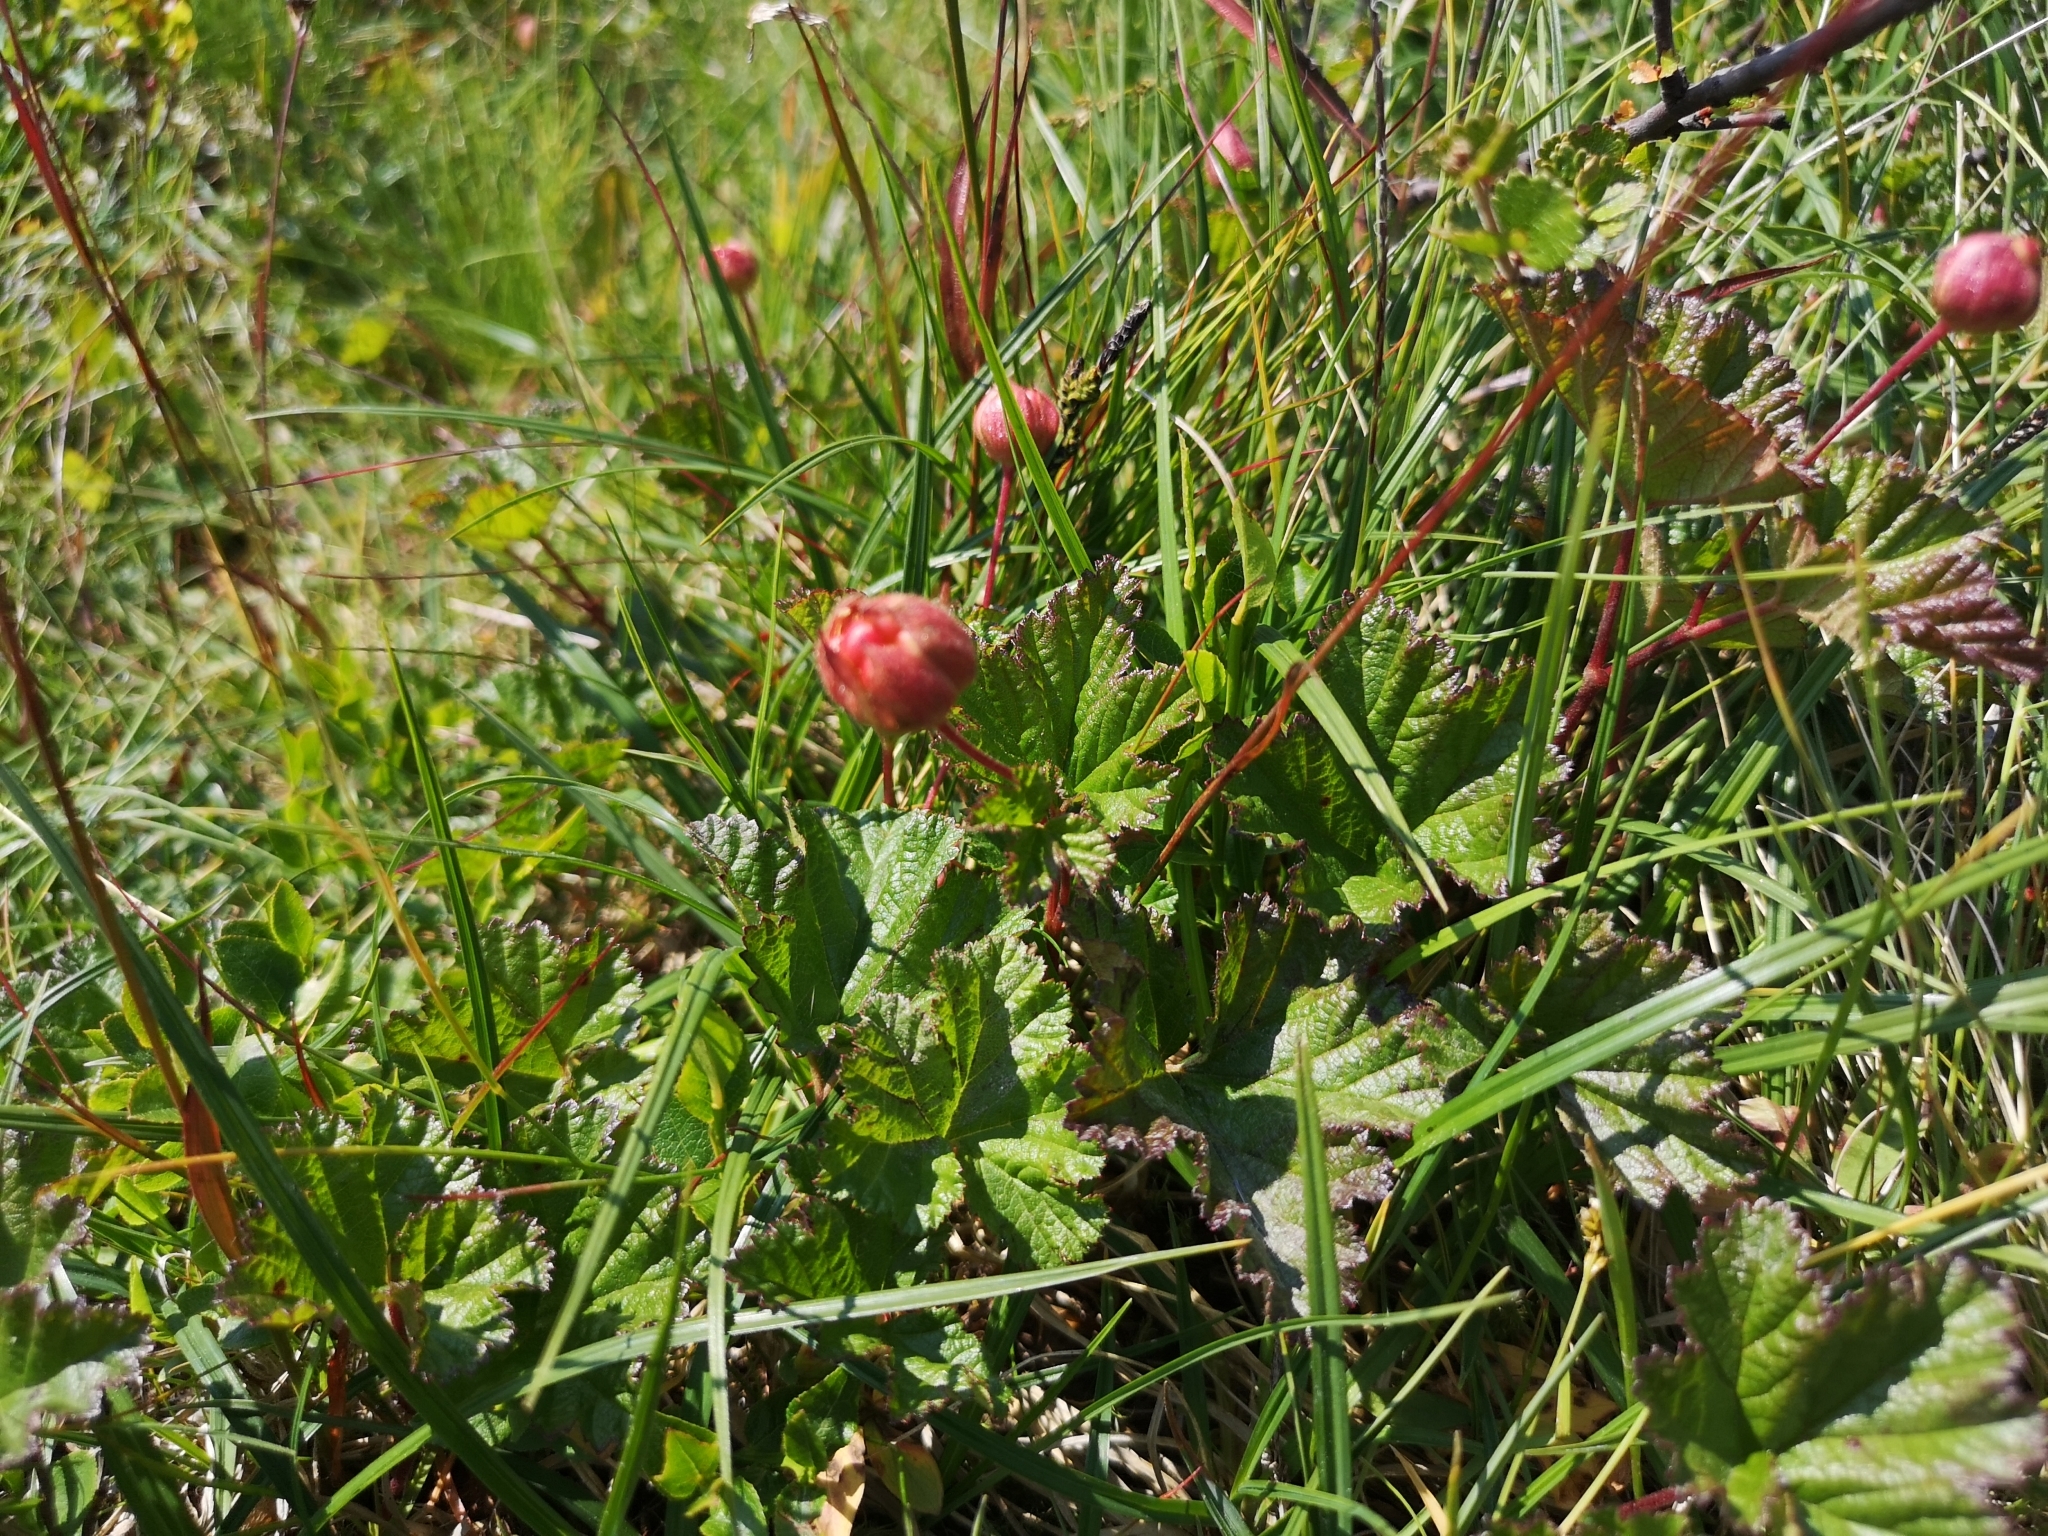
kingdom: Plantae
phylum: Tracheophyta
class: Magnoliopsida
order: Rosales
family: Rosaceae
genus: Rubus
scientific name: Rubus chamaemorus
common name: Cloudberry
